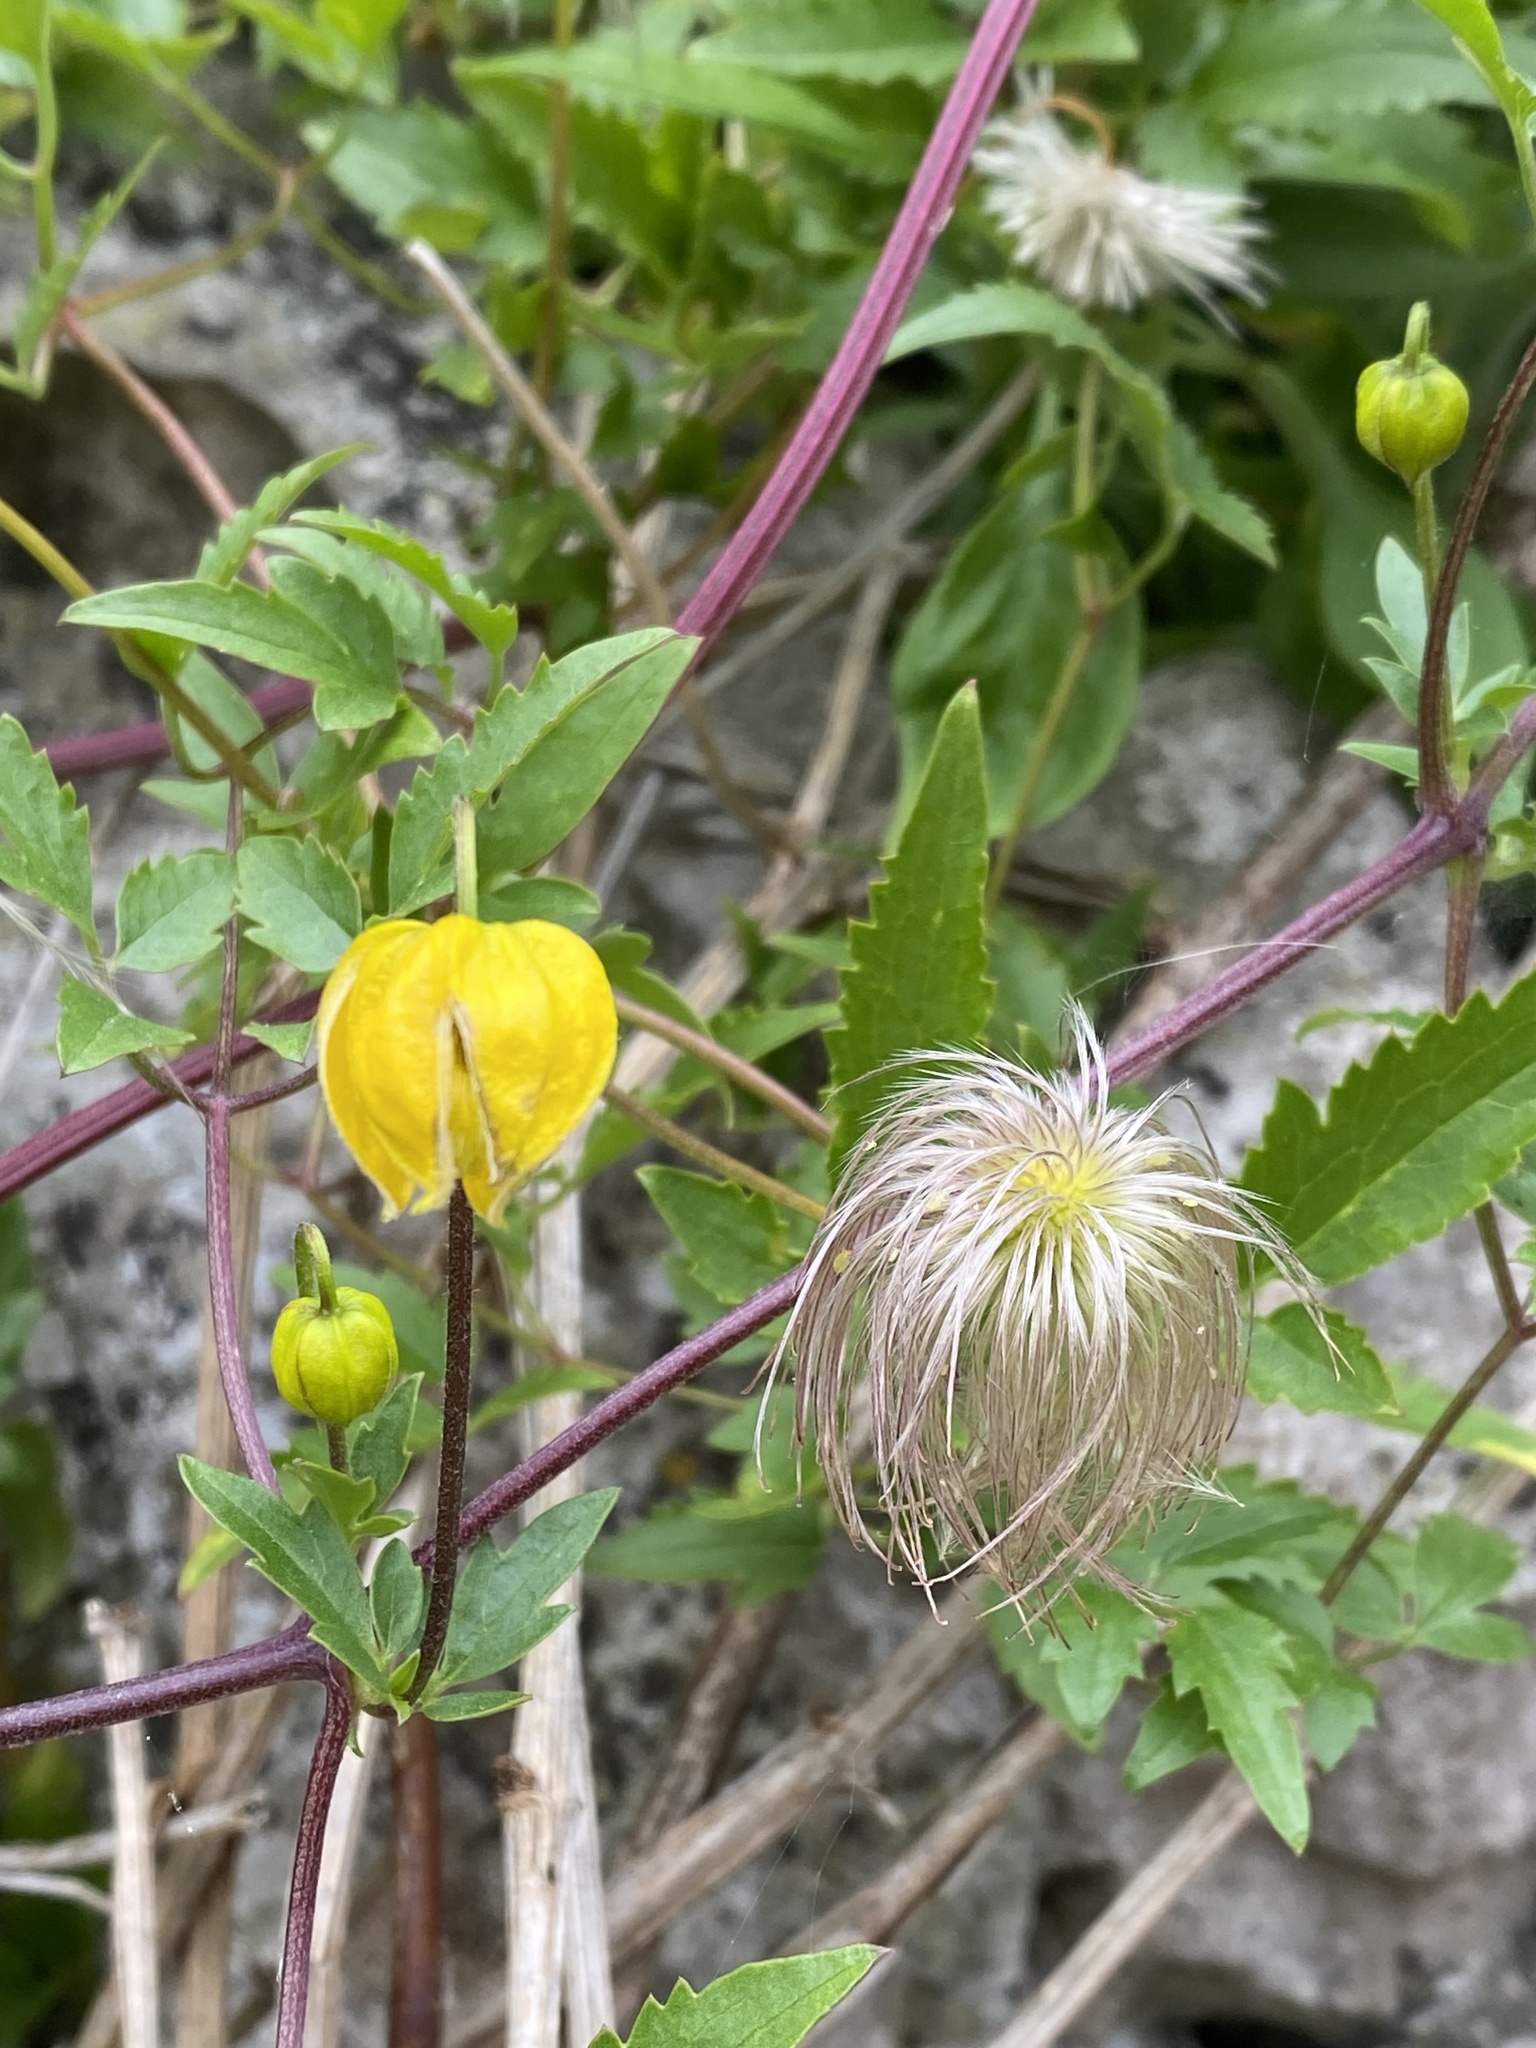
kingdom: Plantae
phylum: Tracheophyta
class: Magnoliopsida
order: Ranunculales
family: Ranunculaceae
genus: Clematis
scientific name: Clematis tangutica
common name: Orange-peel clematis
